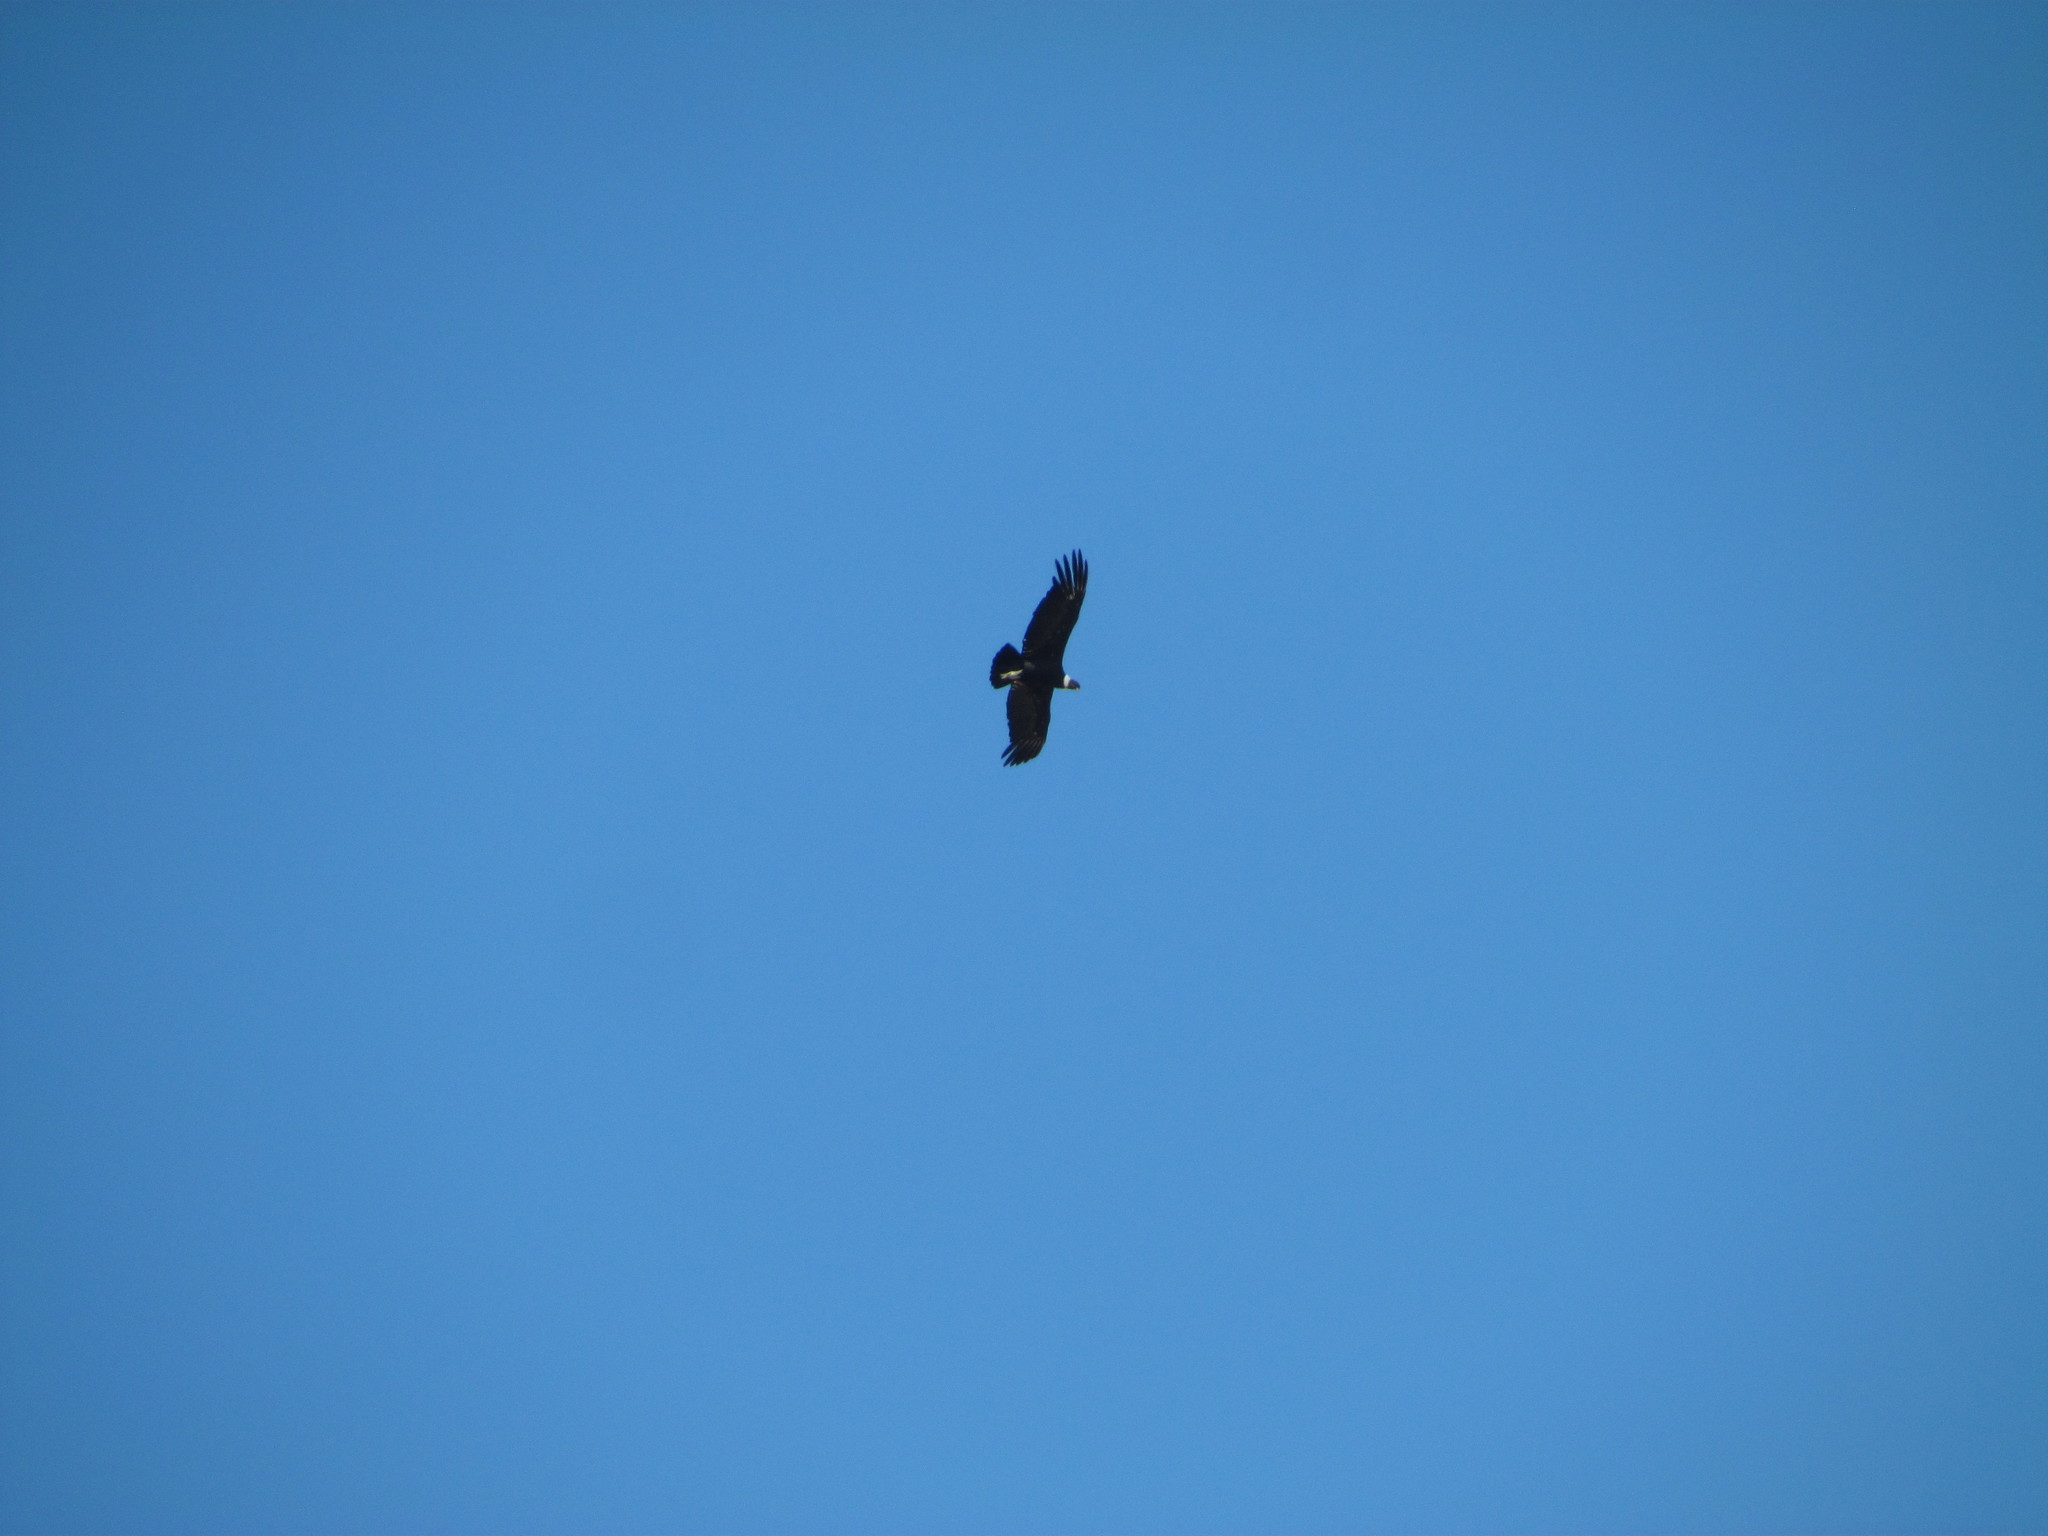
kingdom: Animalia
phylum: Chordata
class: Aves
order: Accipitriformes
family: Cathartidae
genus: Vultur
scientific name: Vultur gryphus
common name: Andean condor
